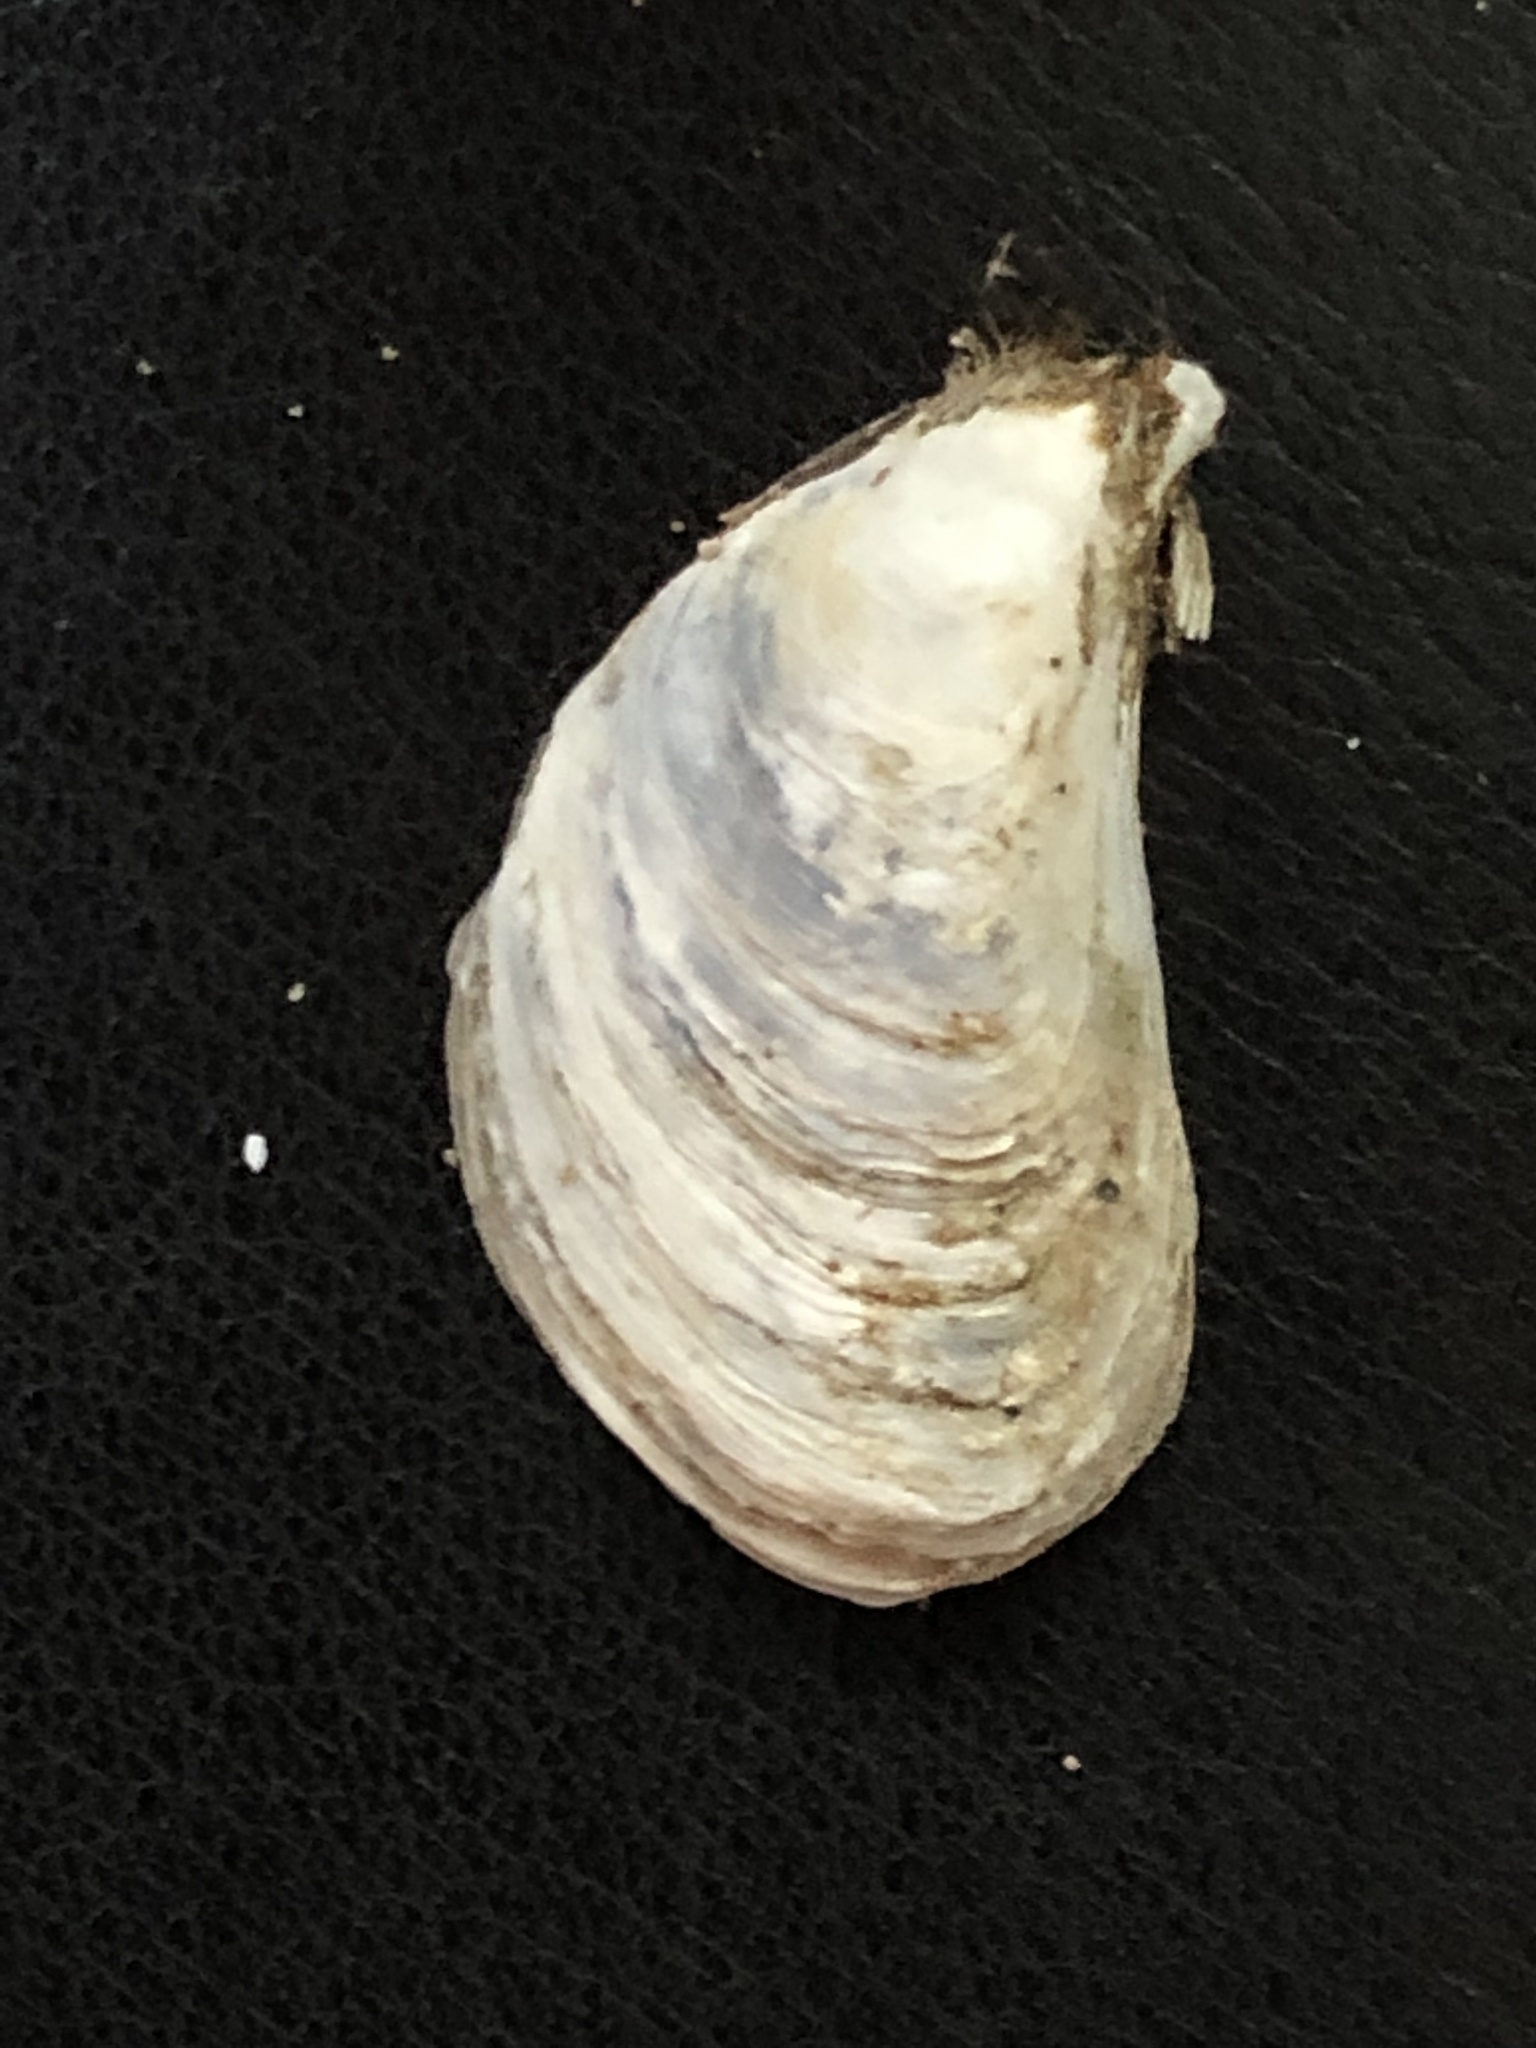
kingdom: Animalia
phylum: Mollusca
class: Bivalvia
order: Myida
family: Dreissenidae
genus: Dreissena
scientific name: Dreissena bugensis
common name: Quagga mussel
